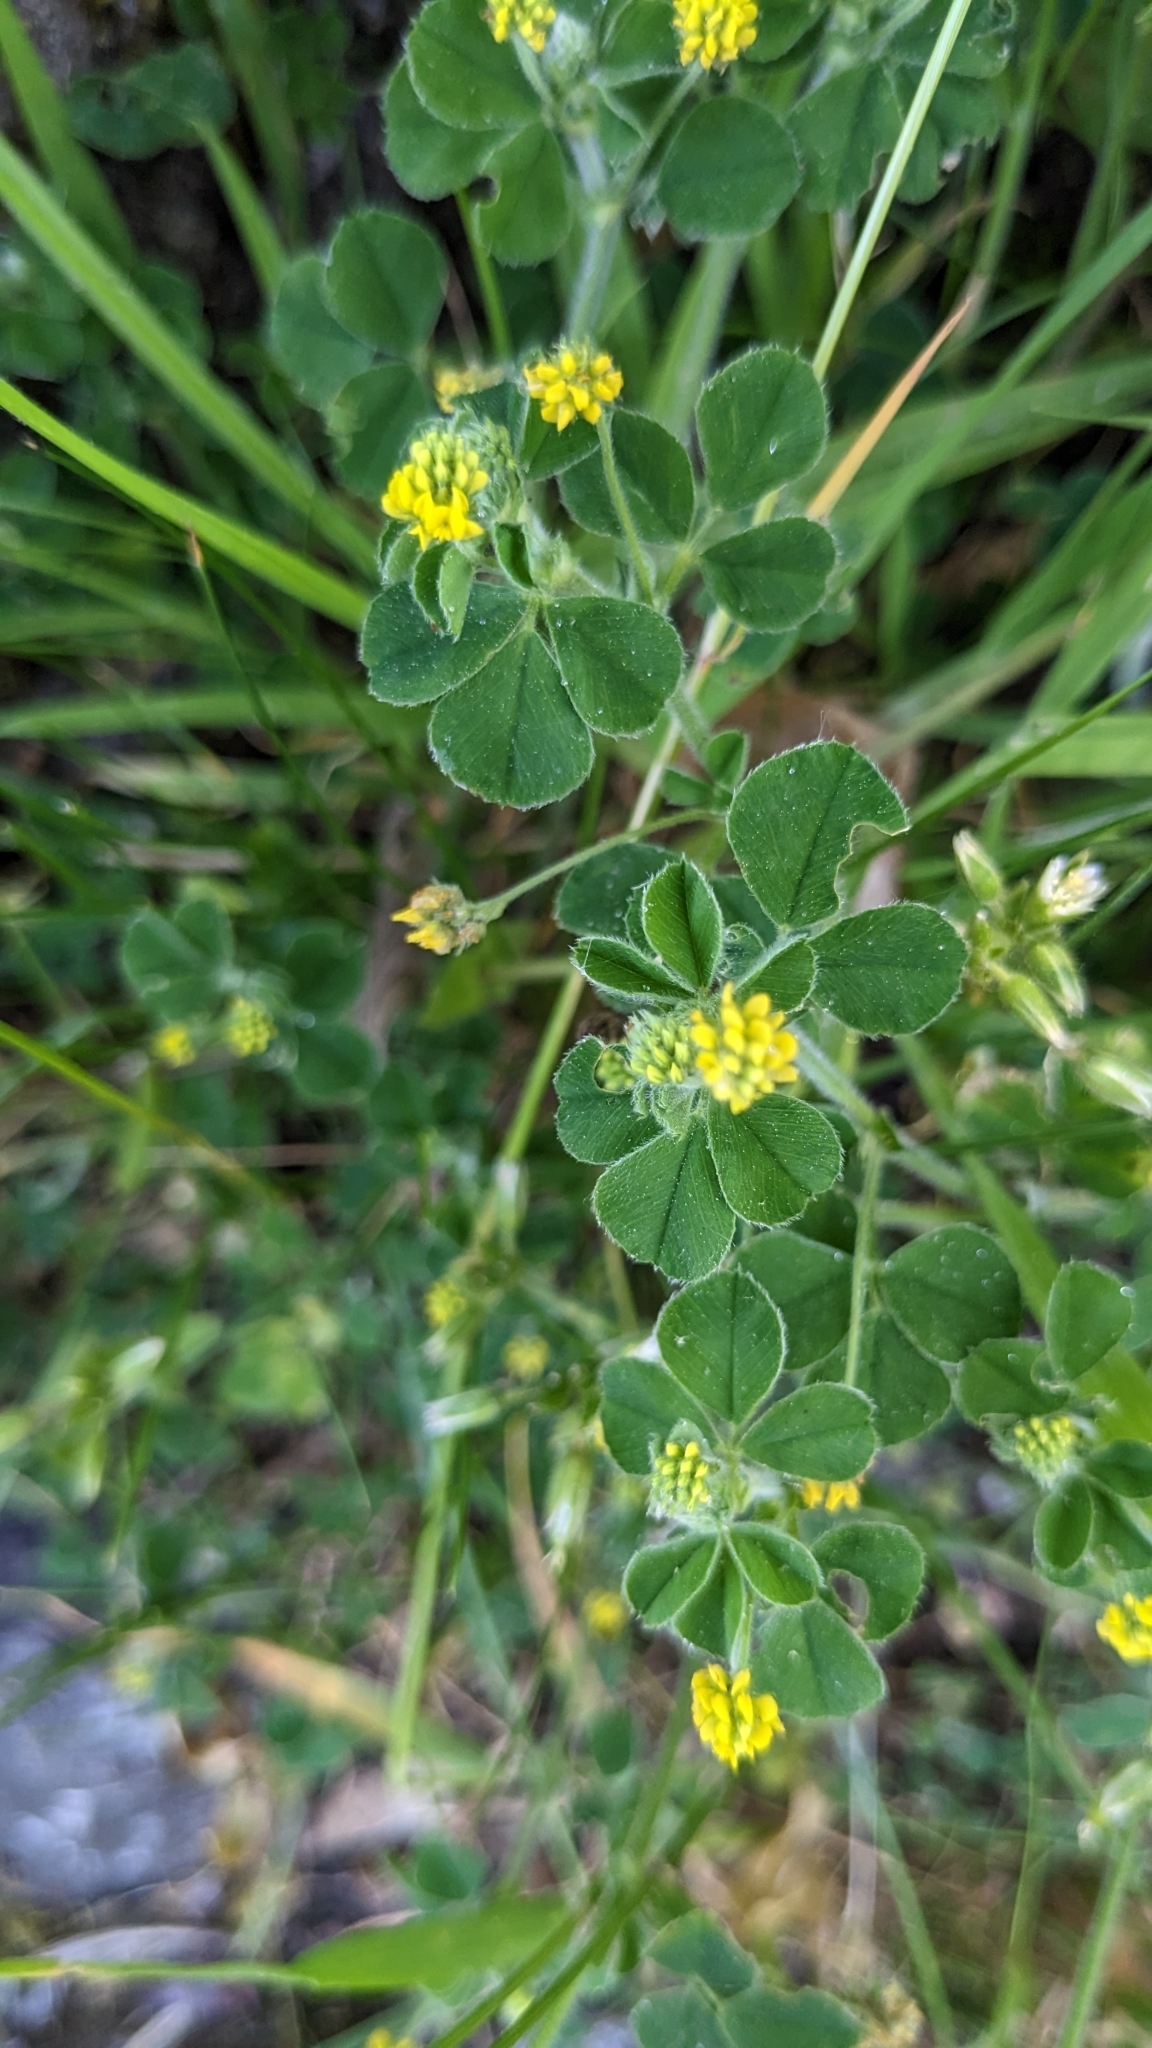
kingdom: Plantae
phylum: Tracheophyta
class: Magnoliopsida
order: Fabales
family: Fabaceae
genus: Medicago
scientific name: Medicago lupulina
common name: Black medick
